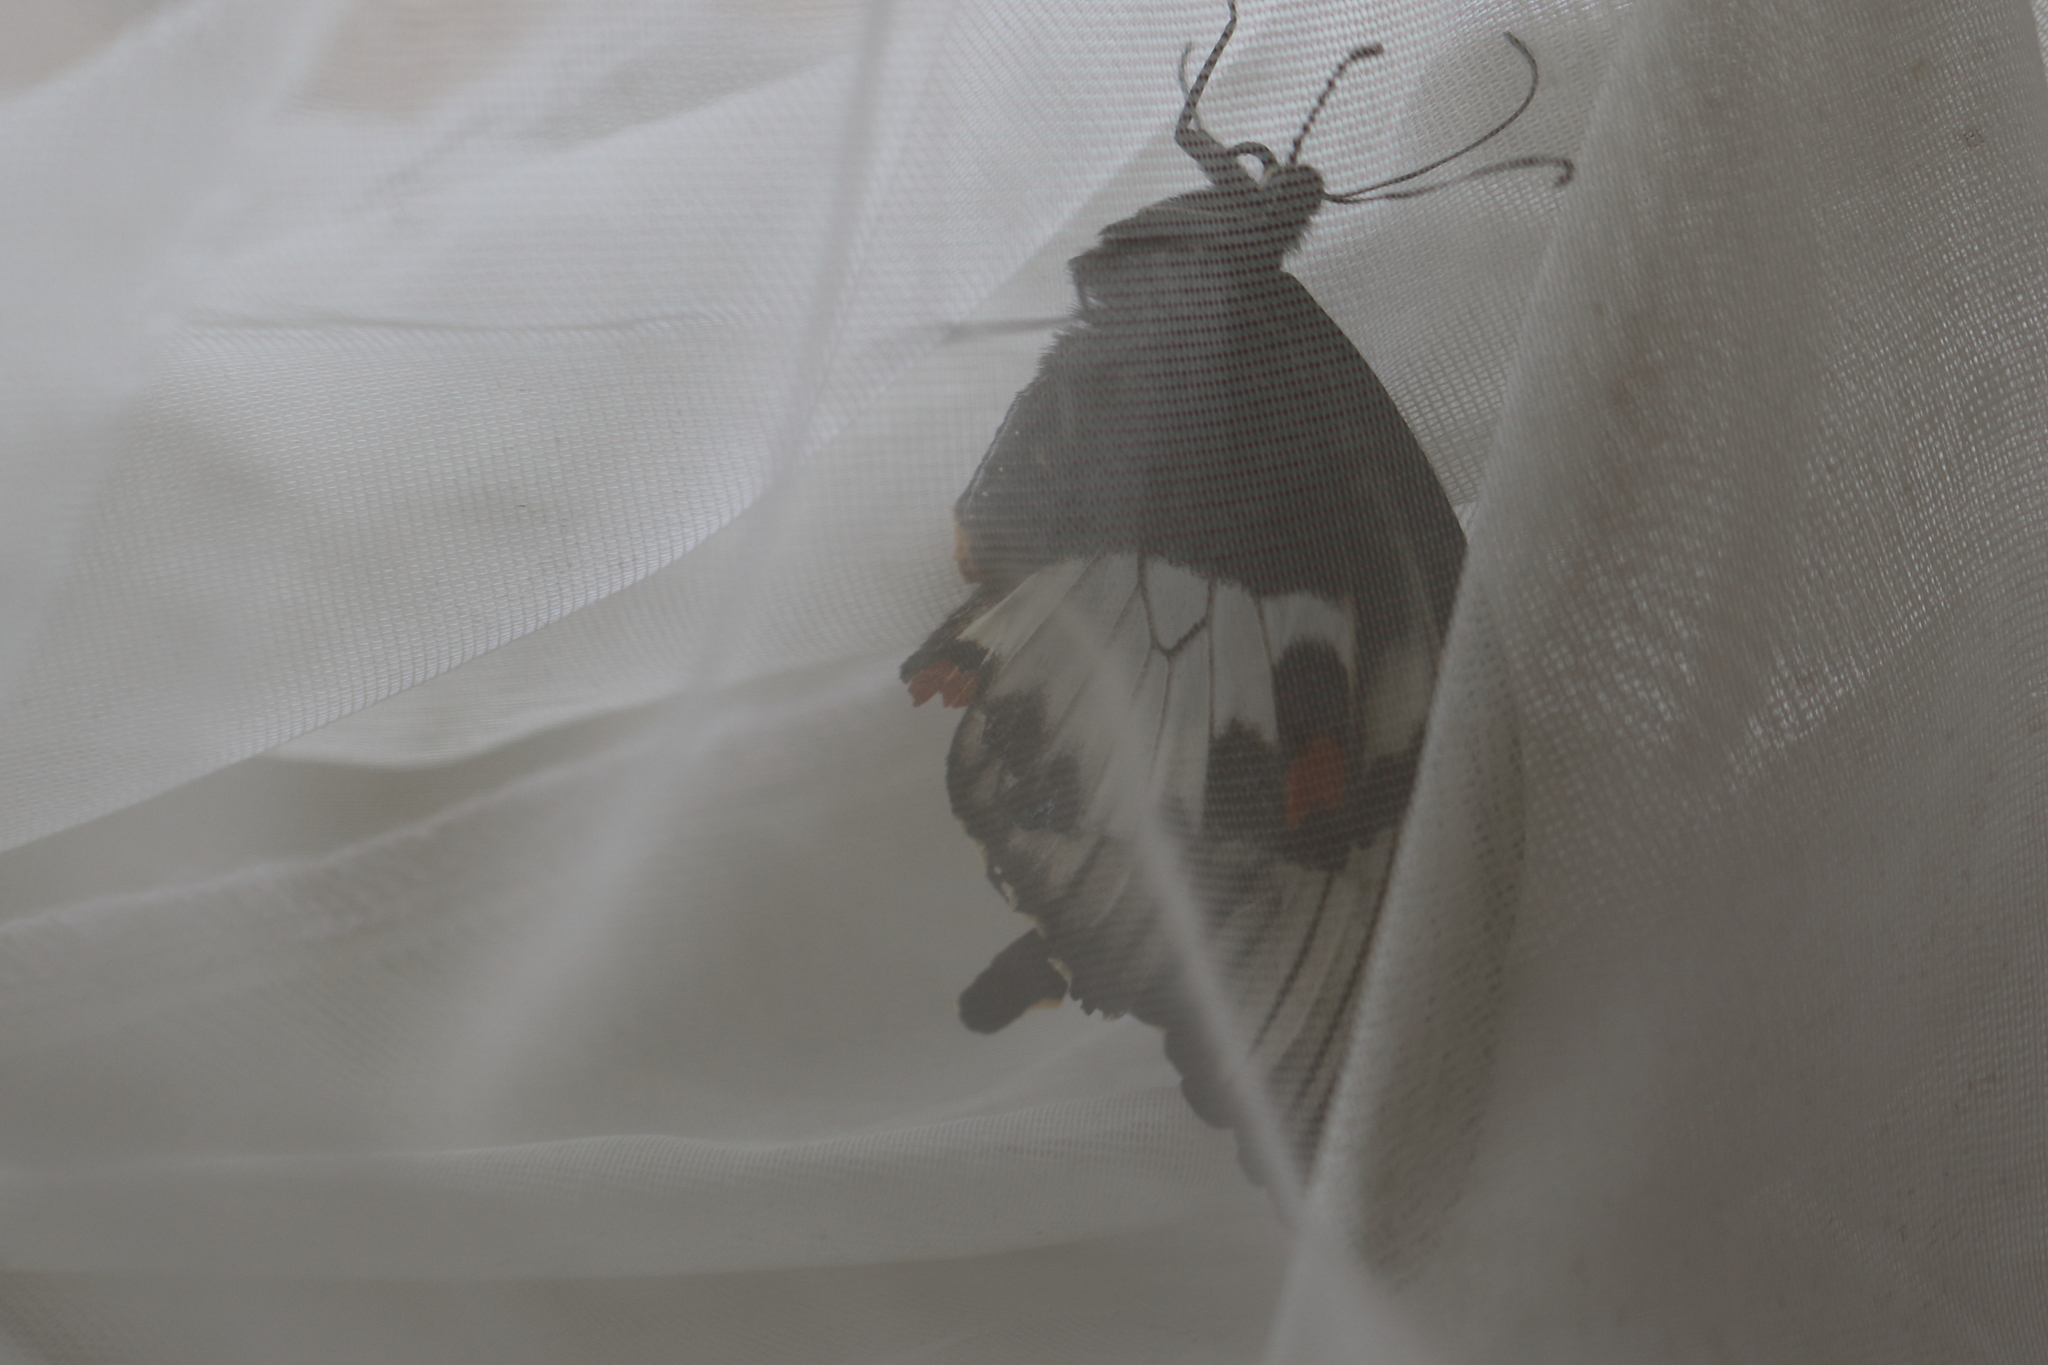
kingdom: Animalia
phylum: Arthropoda
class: Insecta
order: Lepidoptera
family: Papilionidae
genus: Papilio
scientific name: Papilio aegeus
